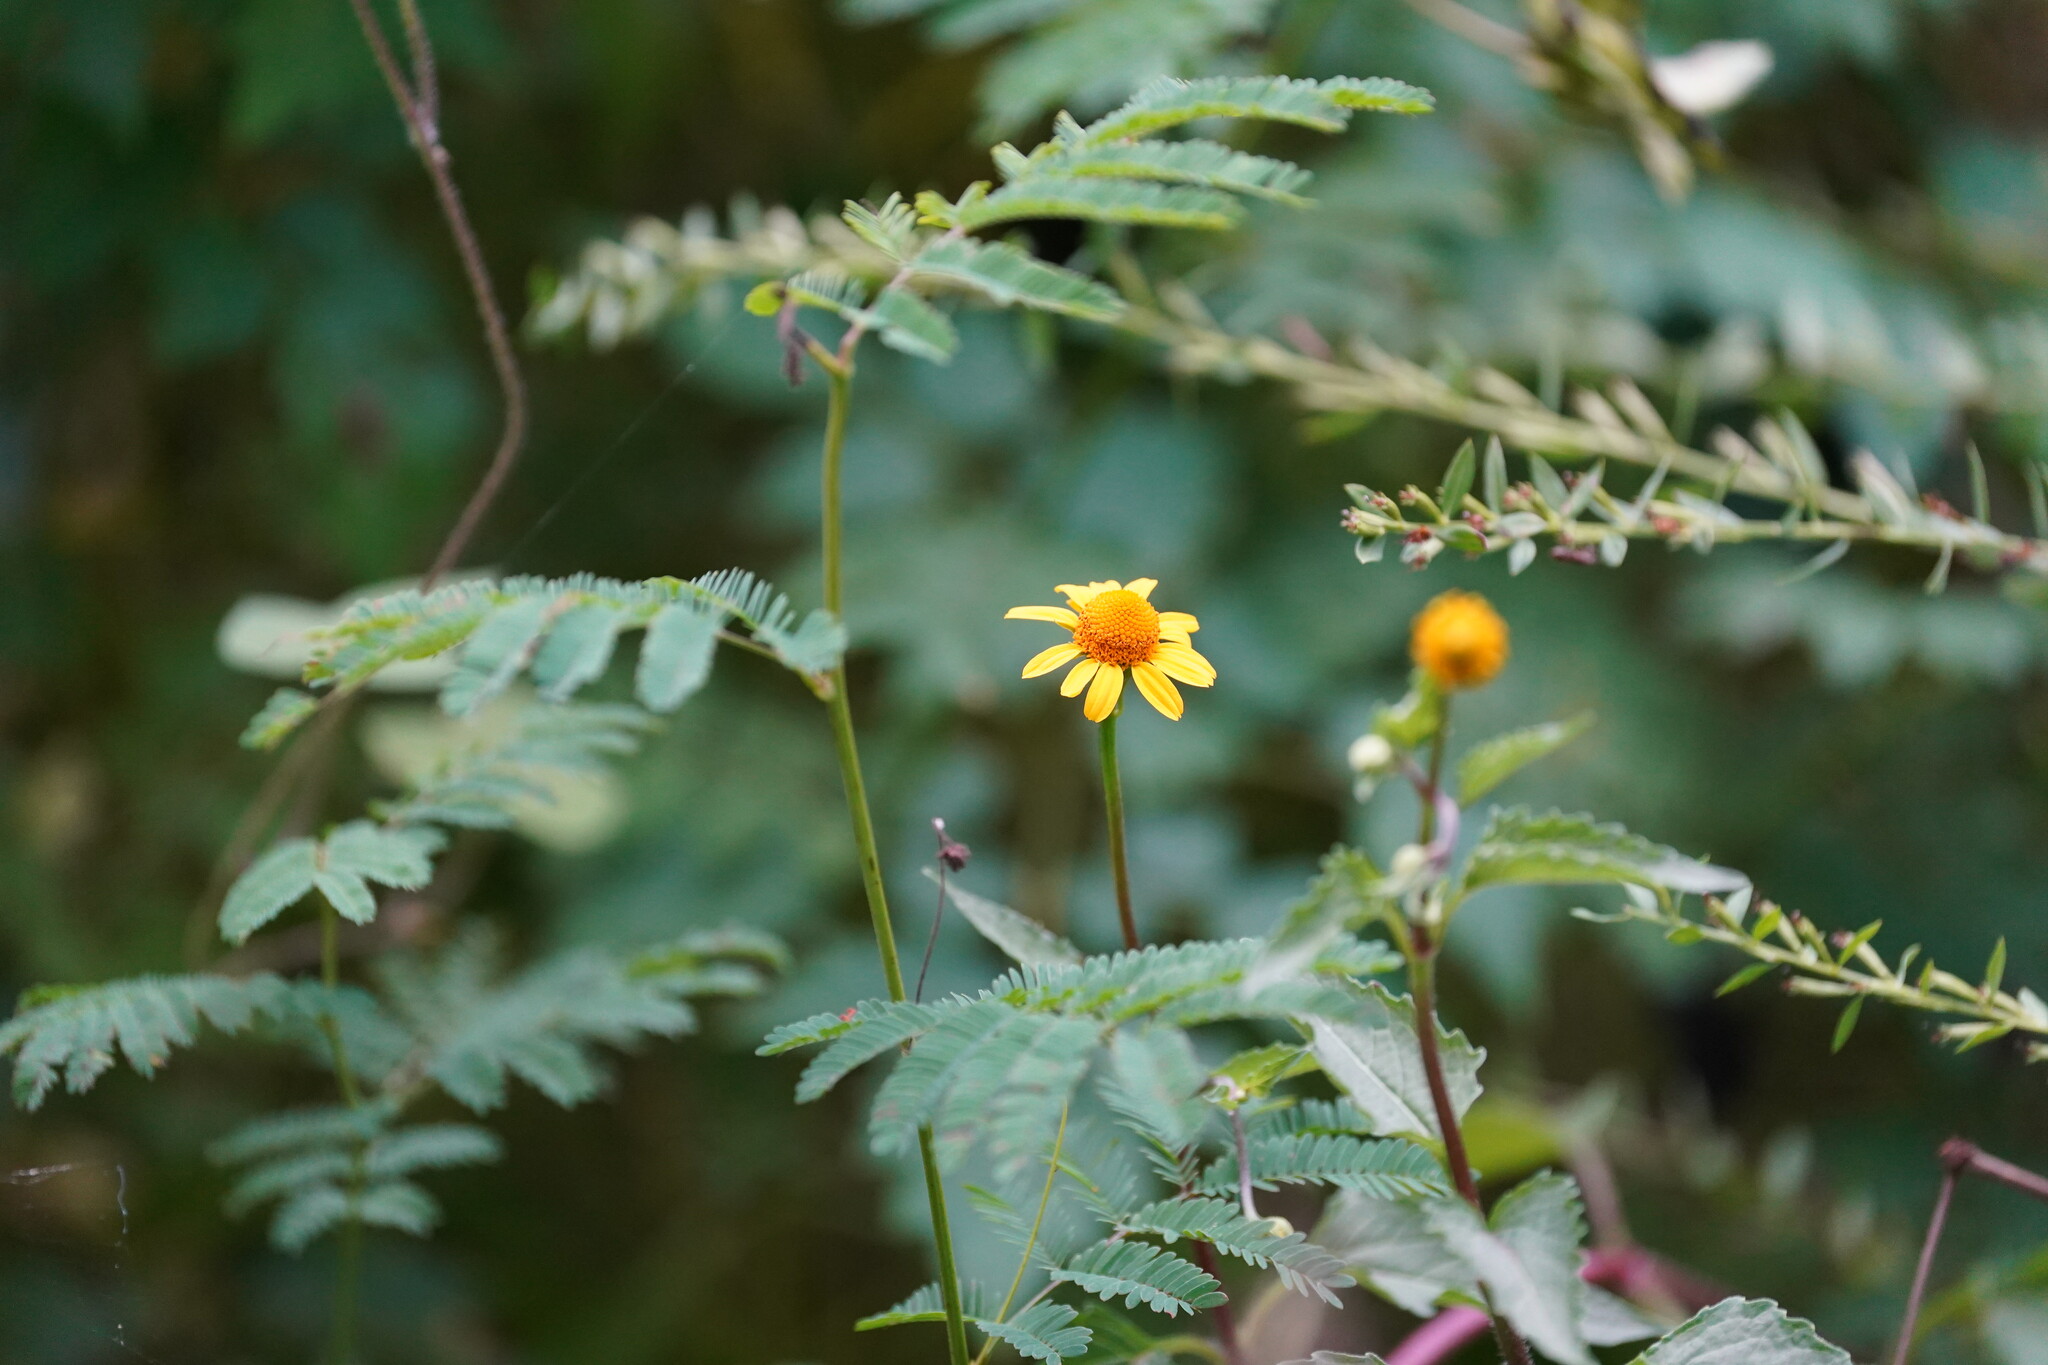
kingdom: Plantae
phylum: Tracheophyta
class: Magnoliopsida
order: Asterales
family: Asteraceae
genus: Acmella
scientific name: Acmella repens
